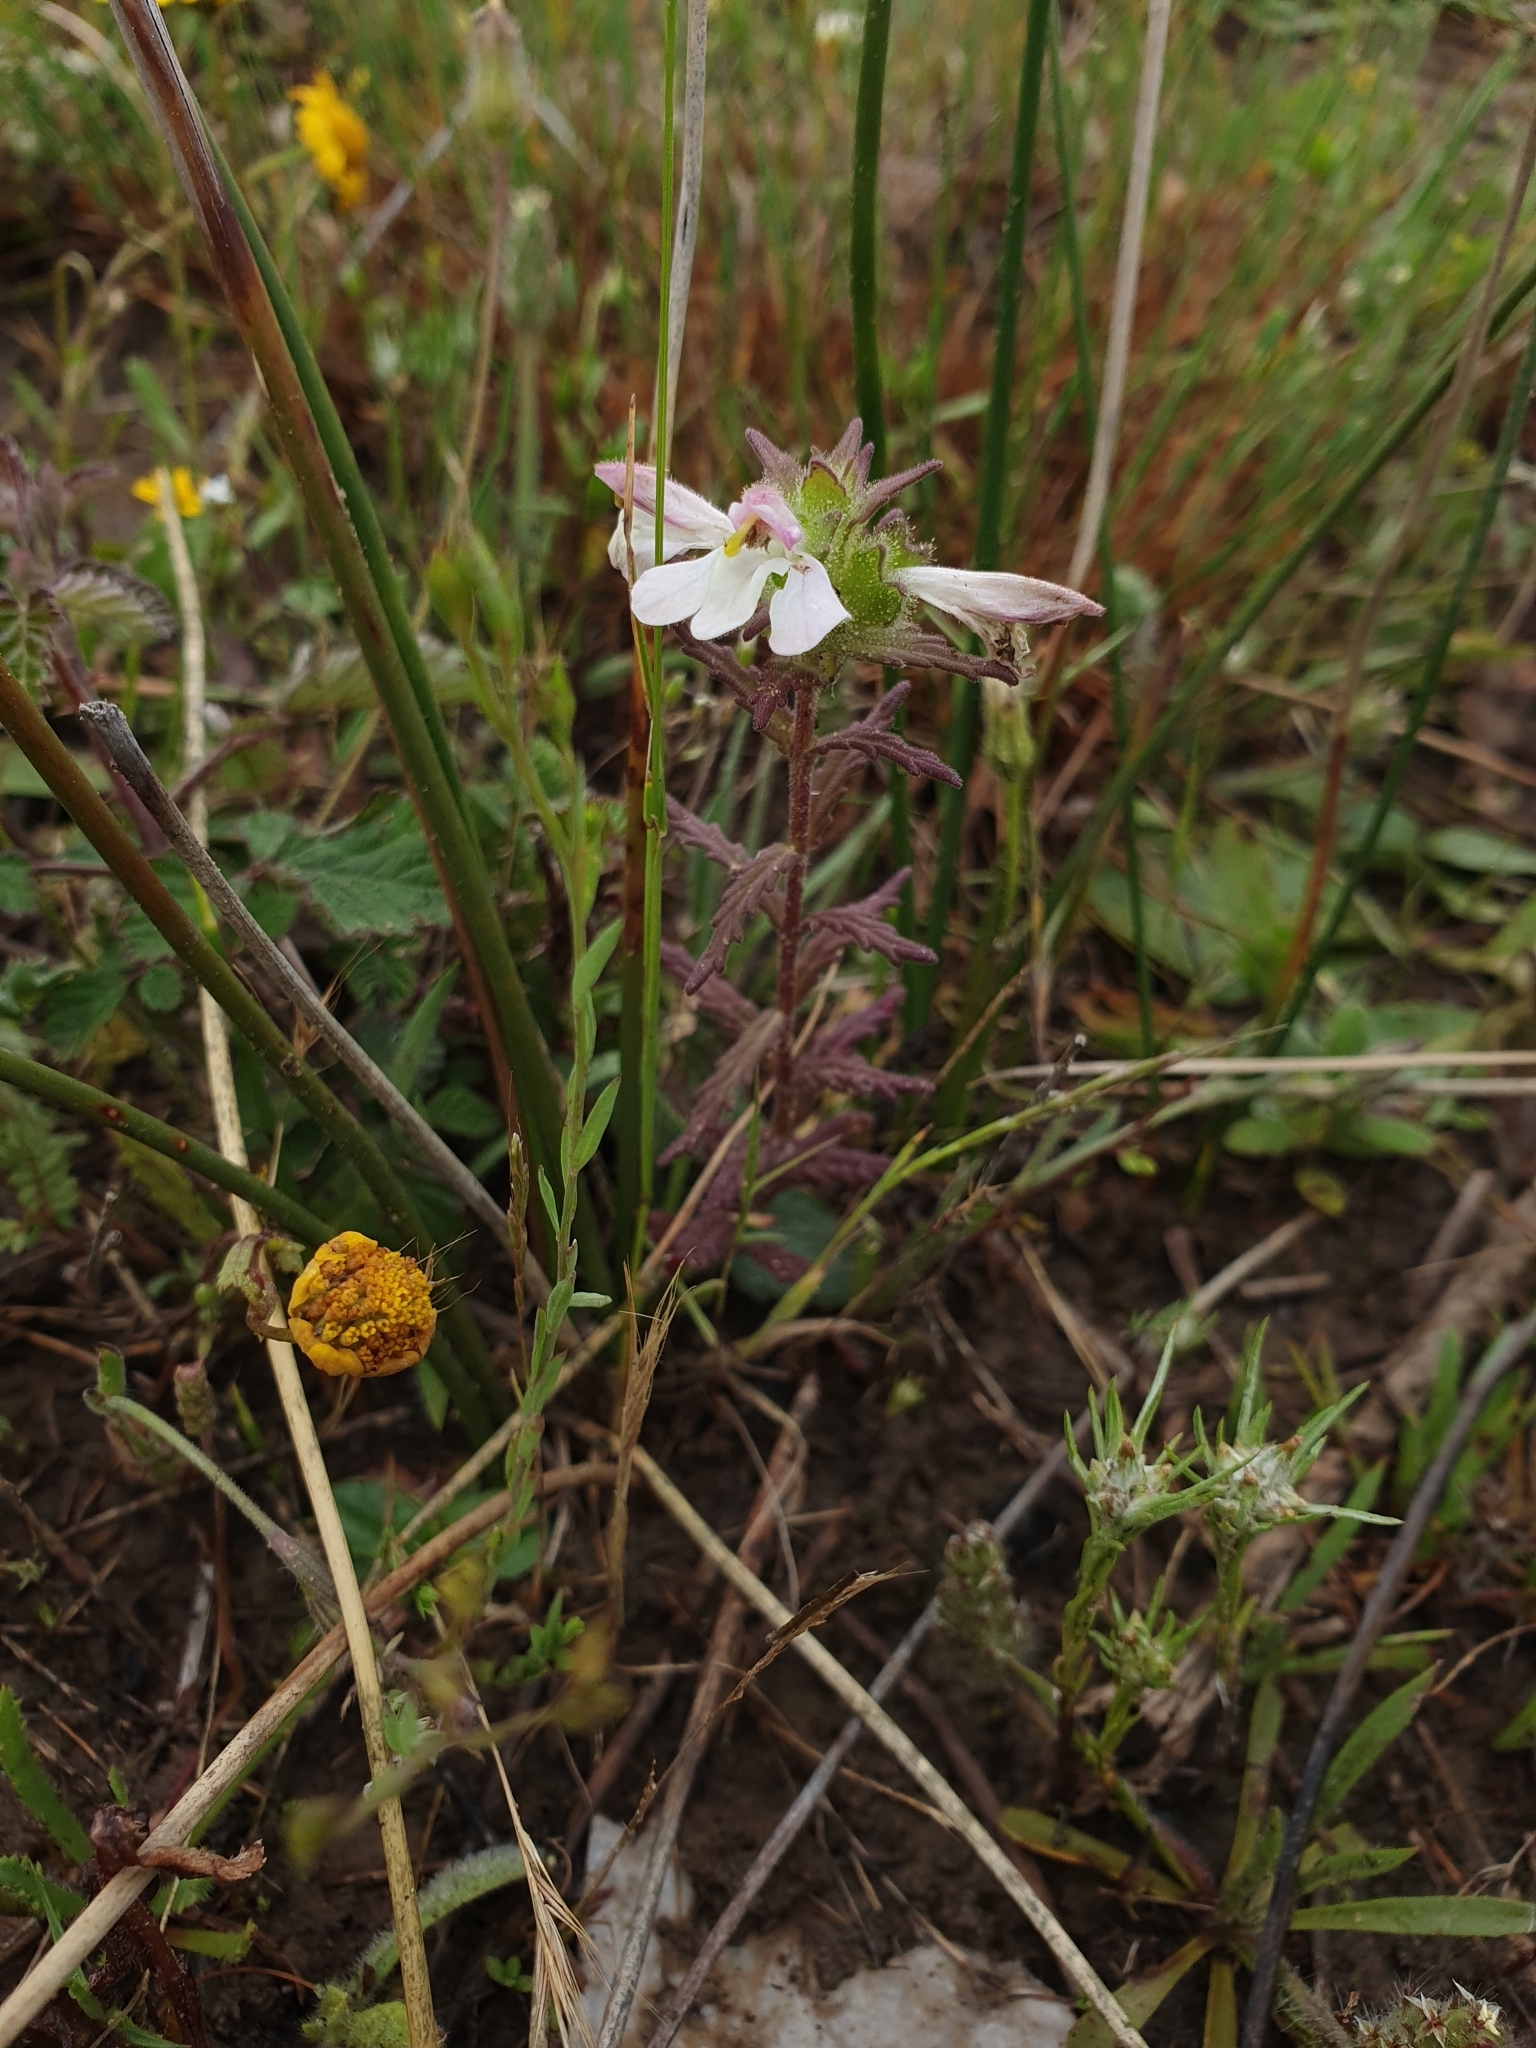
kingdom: Plantae
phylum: Tracheophyta
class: Magnoliopsida
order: Lamiales
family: Orobanchaceae
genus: Bellardia
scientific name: Bellardia trixago
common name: Mediterranean lineseed
